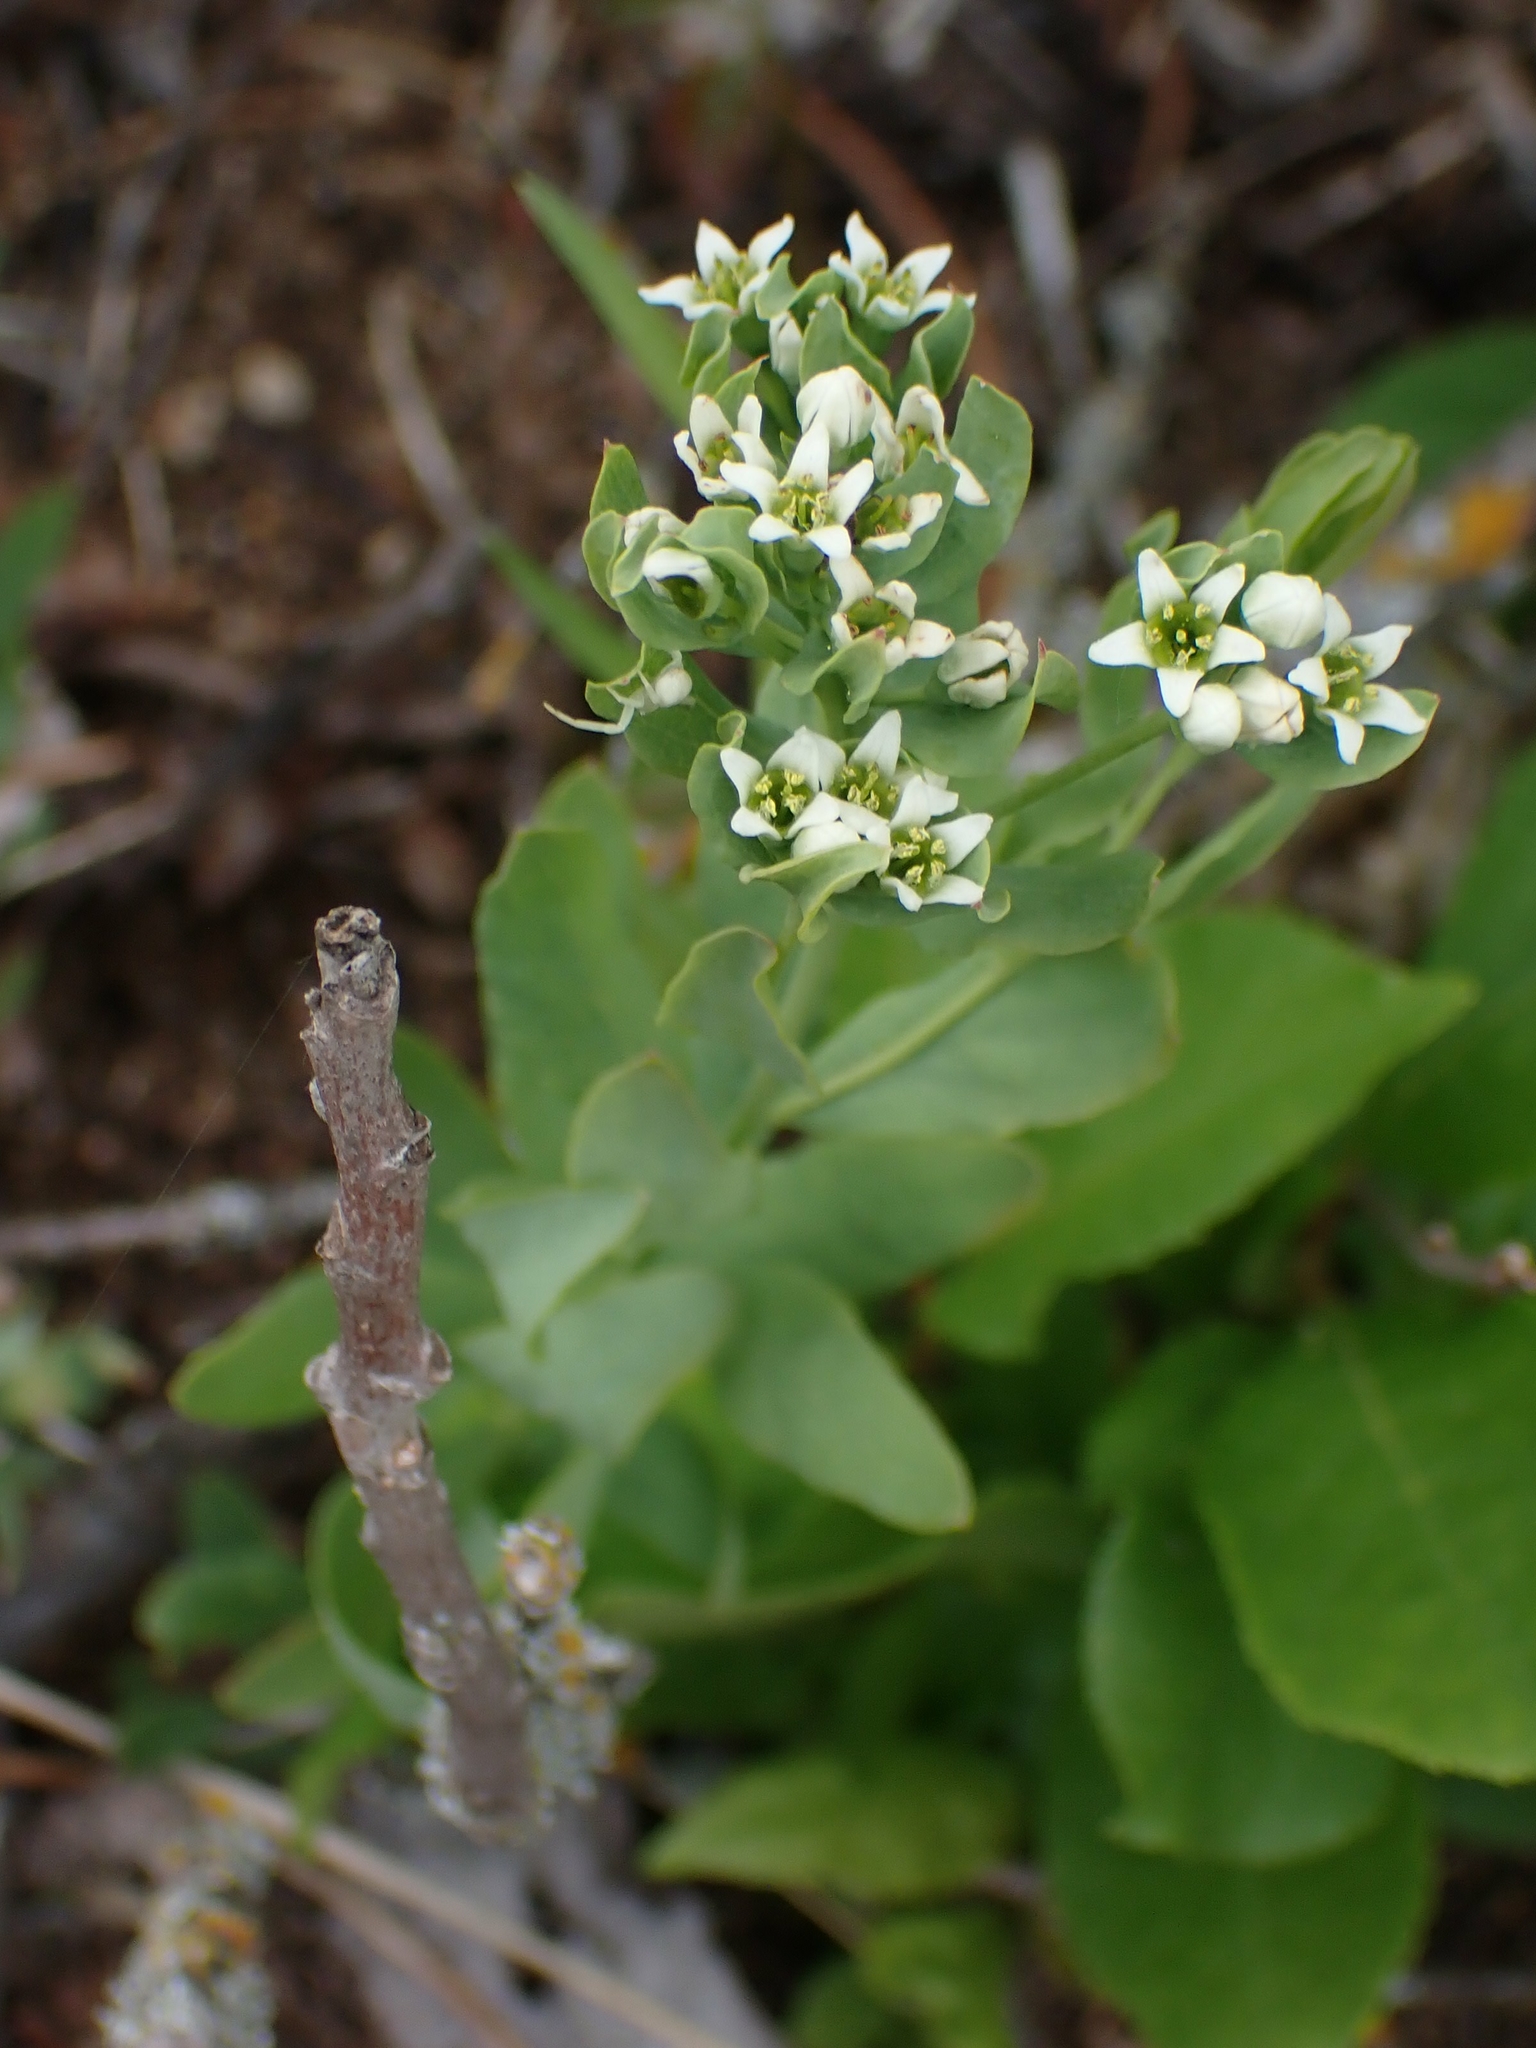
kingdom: Plantae
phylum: Tracheophyta
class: Magnoliopsida
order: Santalales
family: Comandraceae
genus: Comandra
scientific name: Comandra umbellata
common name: Bastard toadflax
